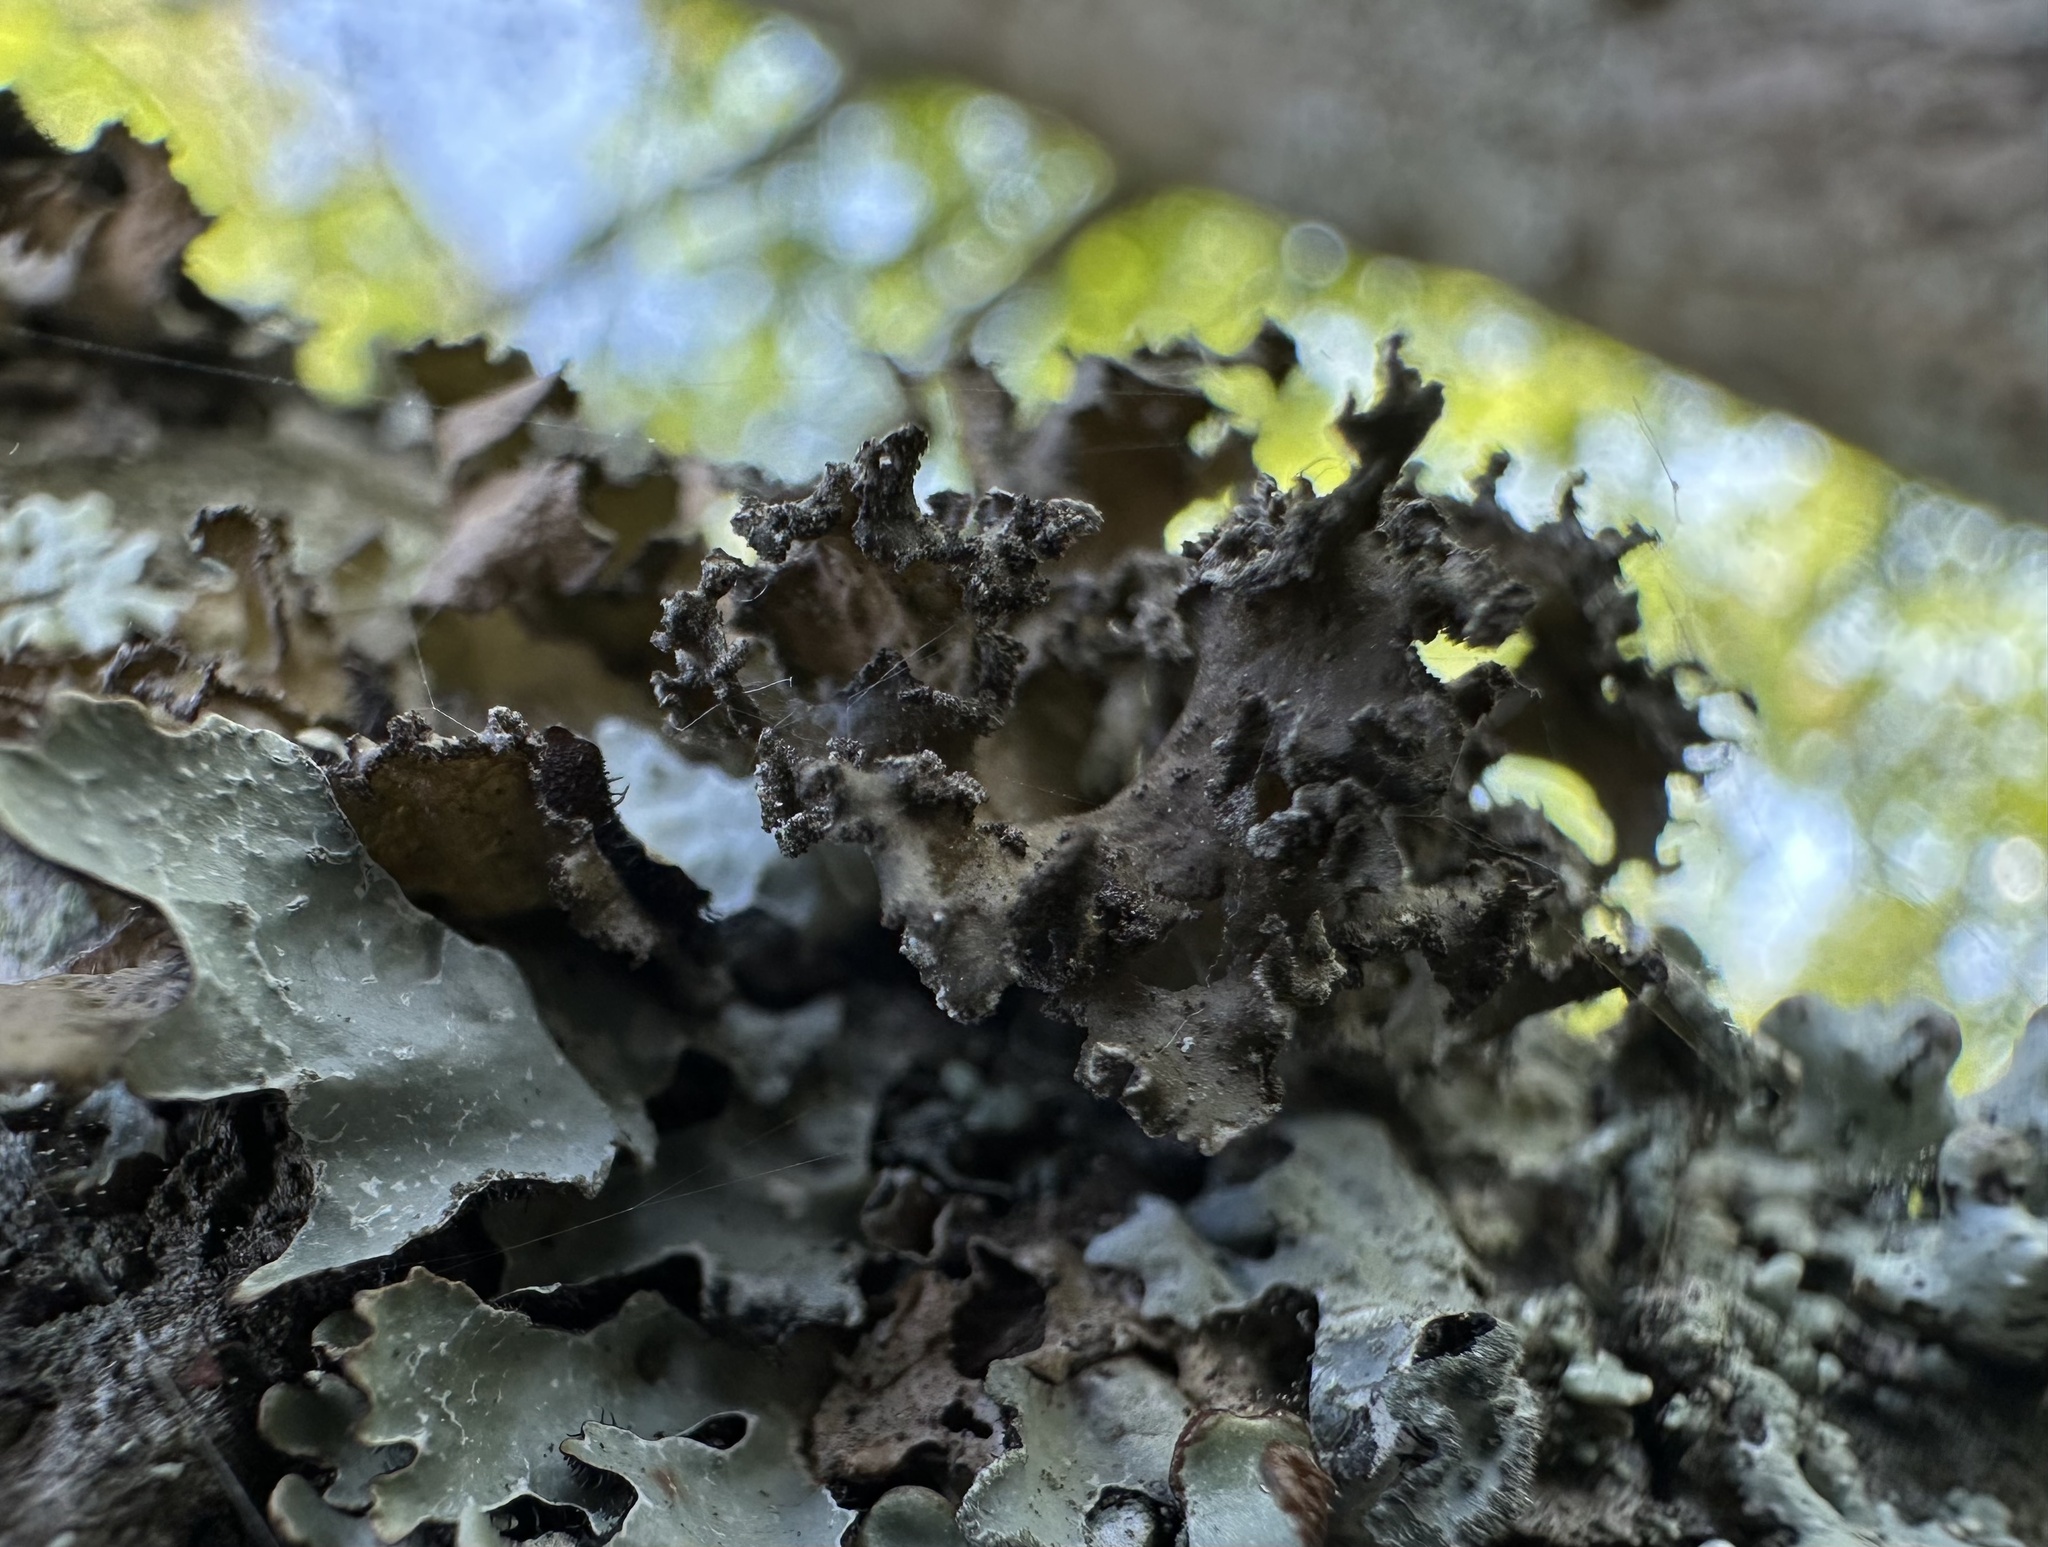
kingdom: Fungi
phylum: Ascomycota
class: Lecanoromycetes
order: Lecanorales
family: Parmeliaceae
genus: Nephromopsis
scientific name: Nephromopsis chlorophylla
